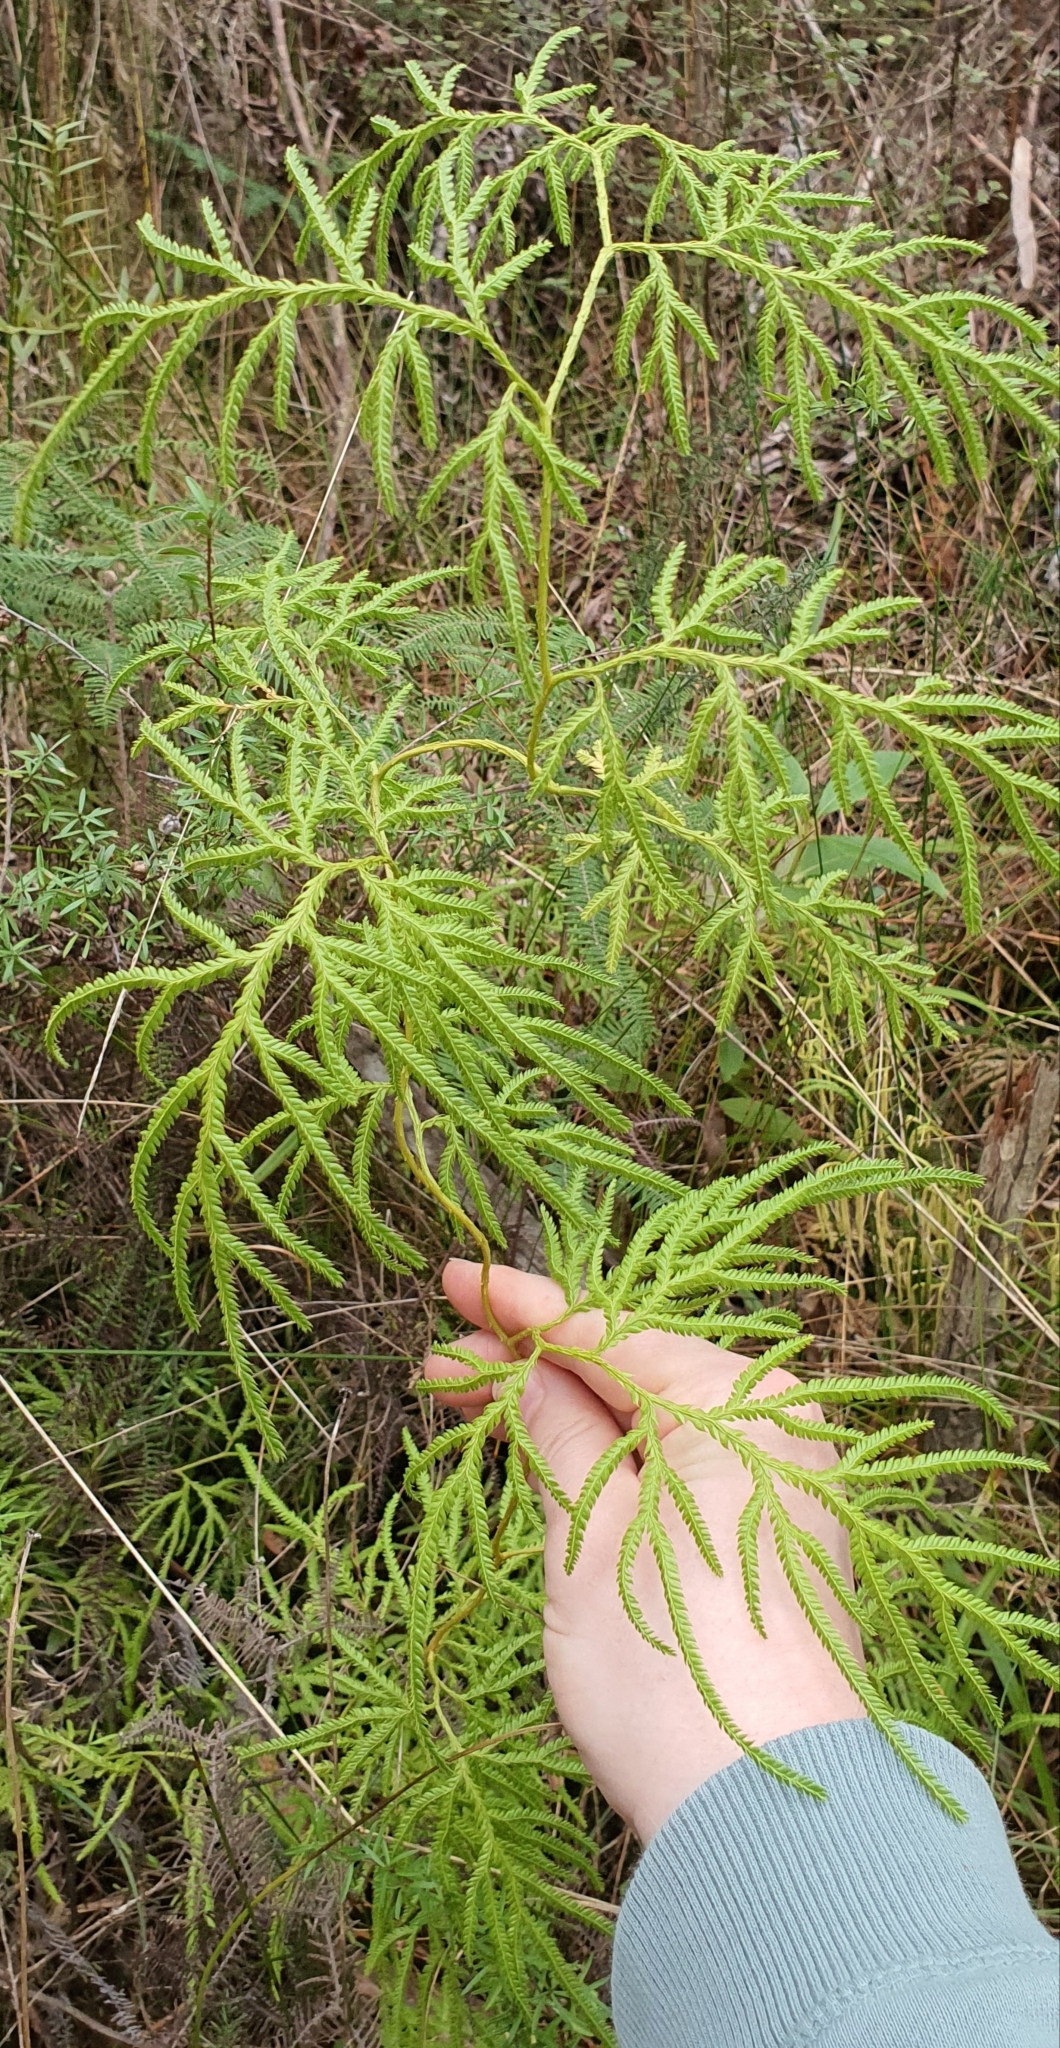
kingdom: Plantae
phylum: Tracheophyta
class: Lycopodiopsida
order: Lycopodiales
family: Lycopodiaceae
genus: Lycopodium
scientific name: Lycopodium volubile
